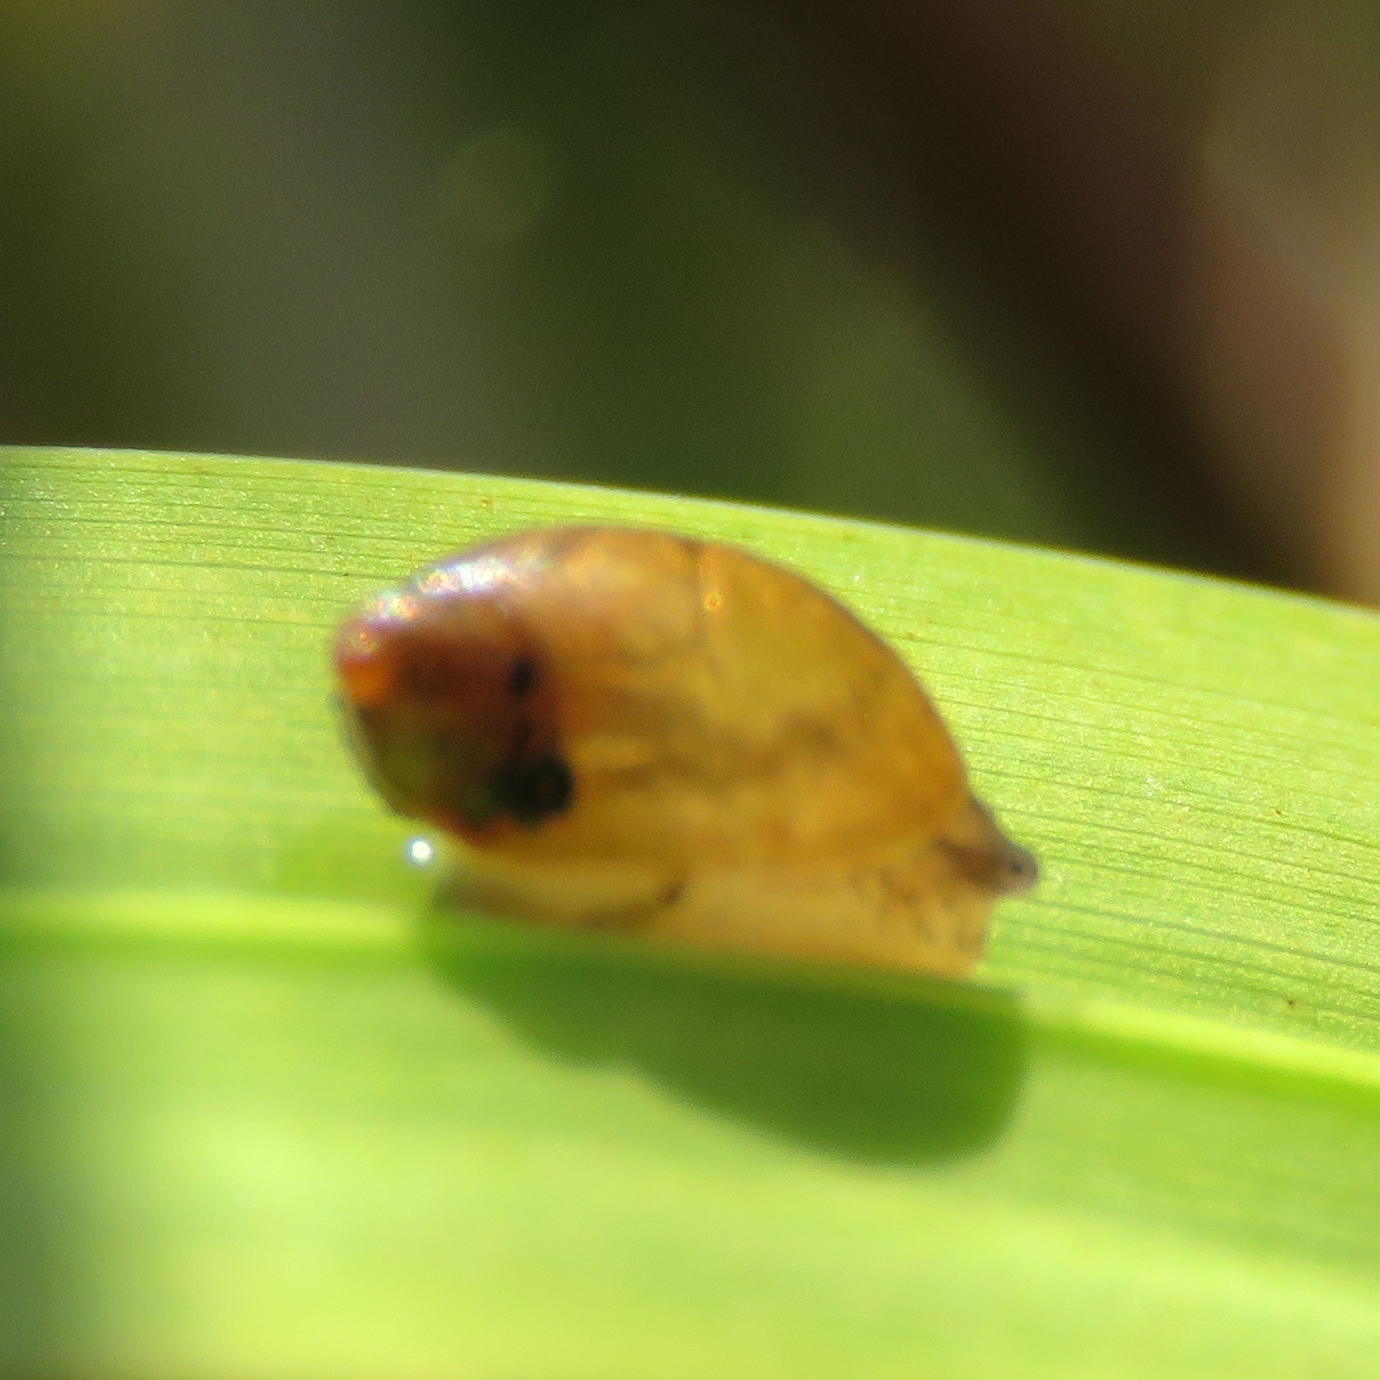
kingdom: Animalia
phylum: Mollusca
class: Gastropoda
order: Stylommatophora
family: Succineidae
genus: Succinea
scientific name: Succinea putris
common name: European ambersnail
